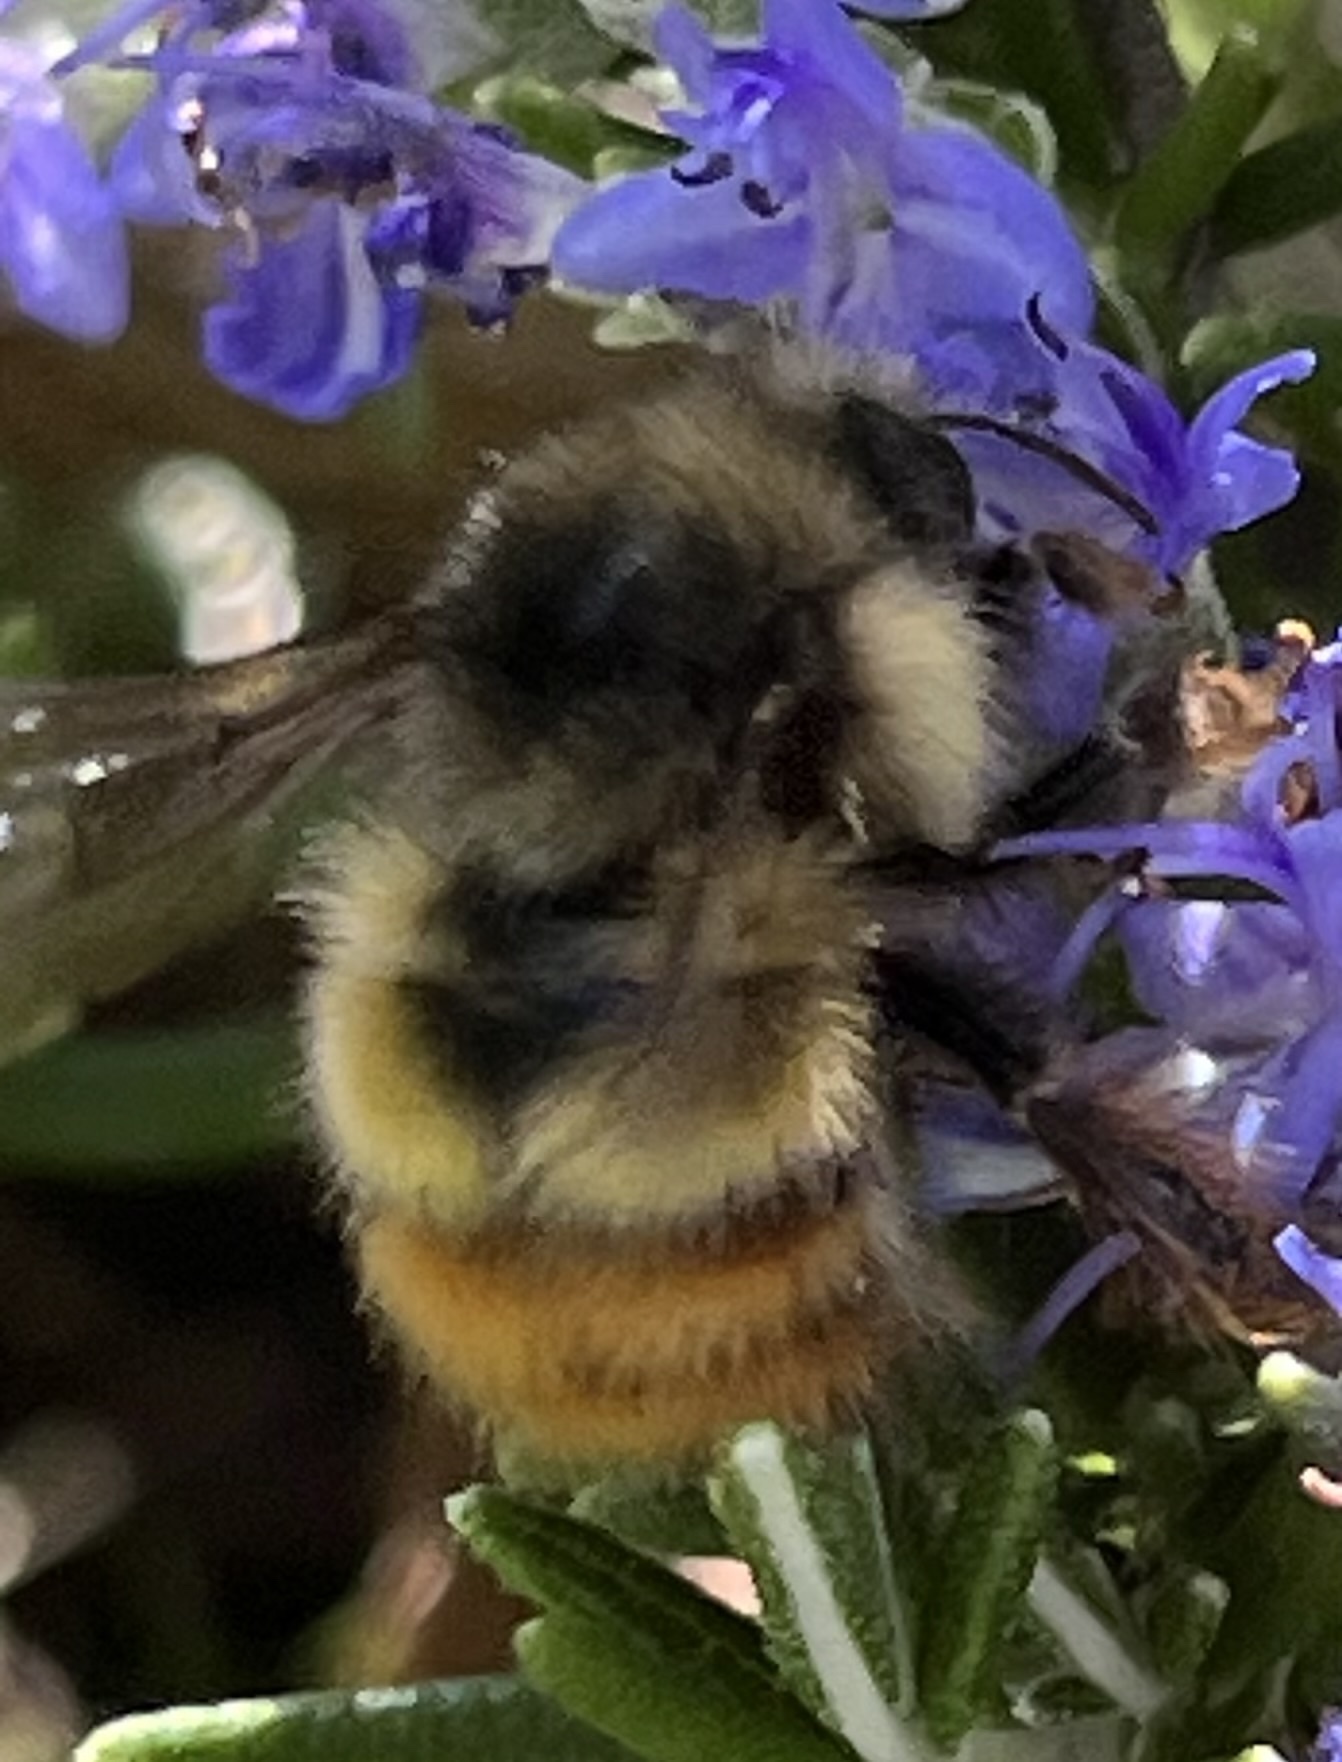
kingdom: Animalia
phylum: Arthropoda
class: Insecta
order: Hymenoptera
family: Apidae
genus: Bombus
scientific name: Bombus flavifrons
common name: Yellow head bumble bee
